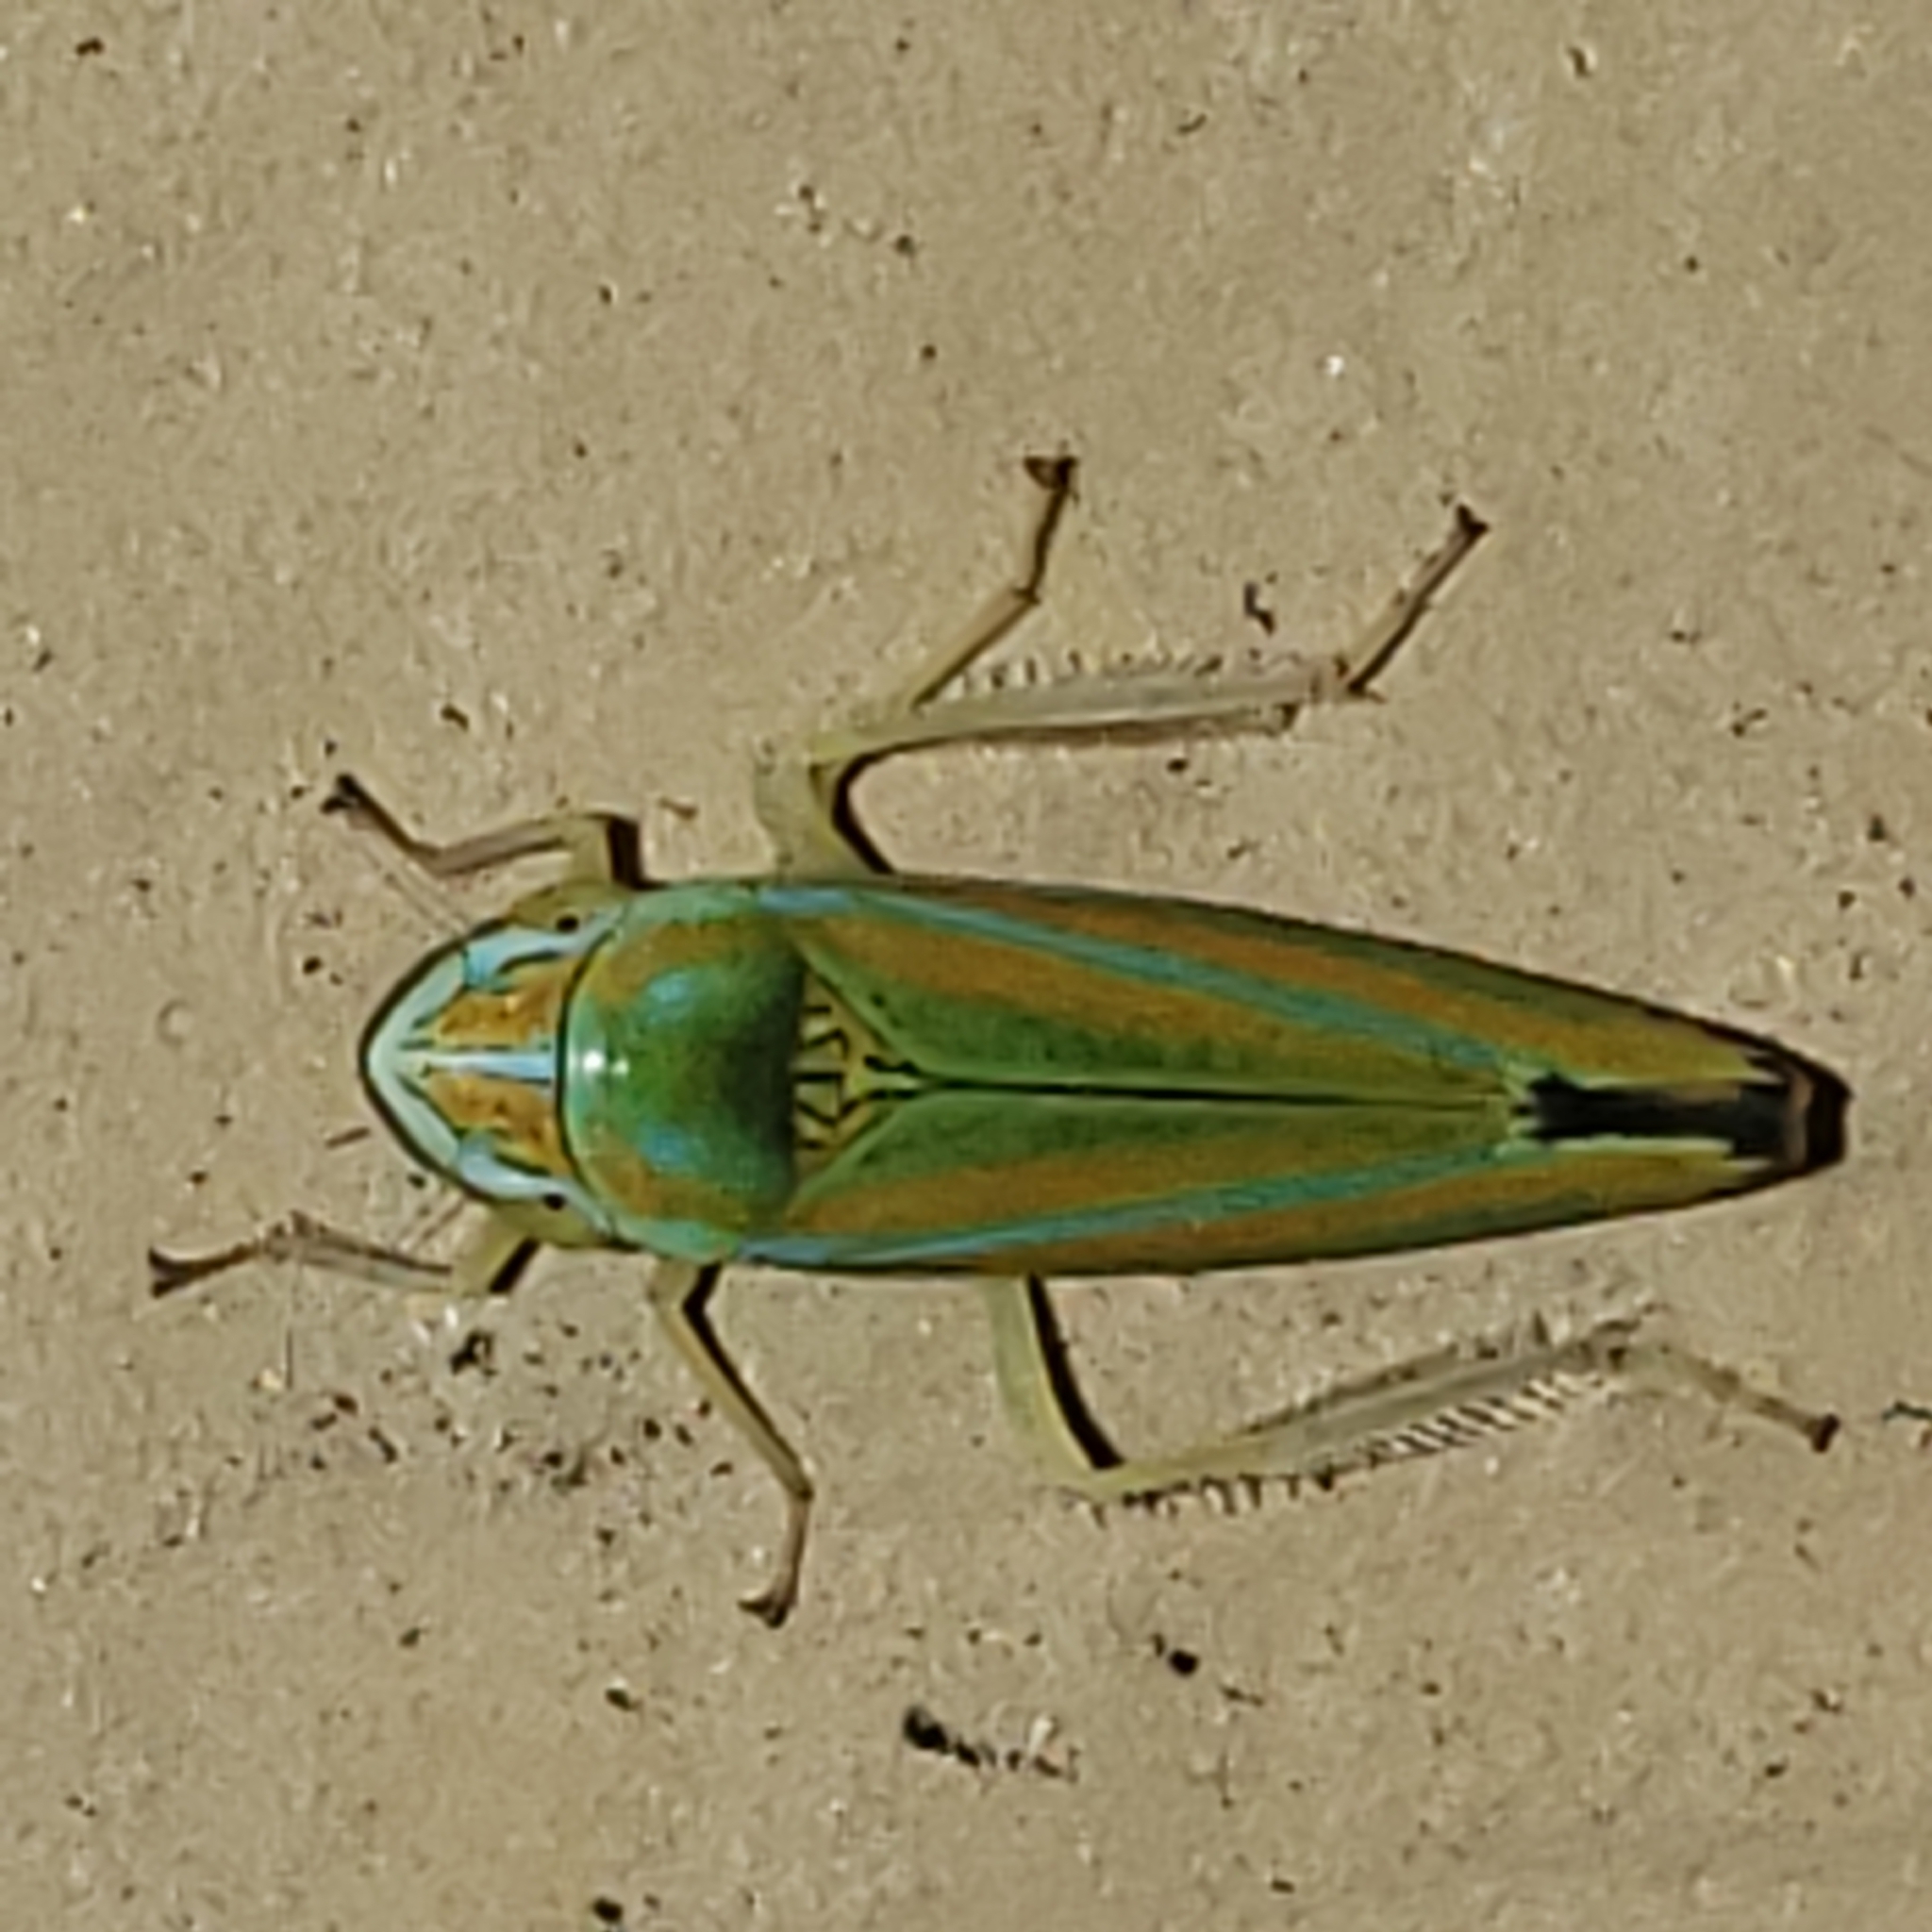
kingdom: Animalia
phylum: Arthropoda
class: Insecta
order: Hemiptera
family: Cicadellidae
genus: Graphocephala
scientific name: Graphocephala versuta
